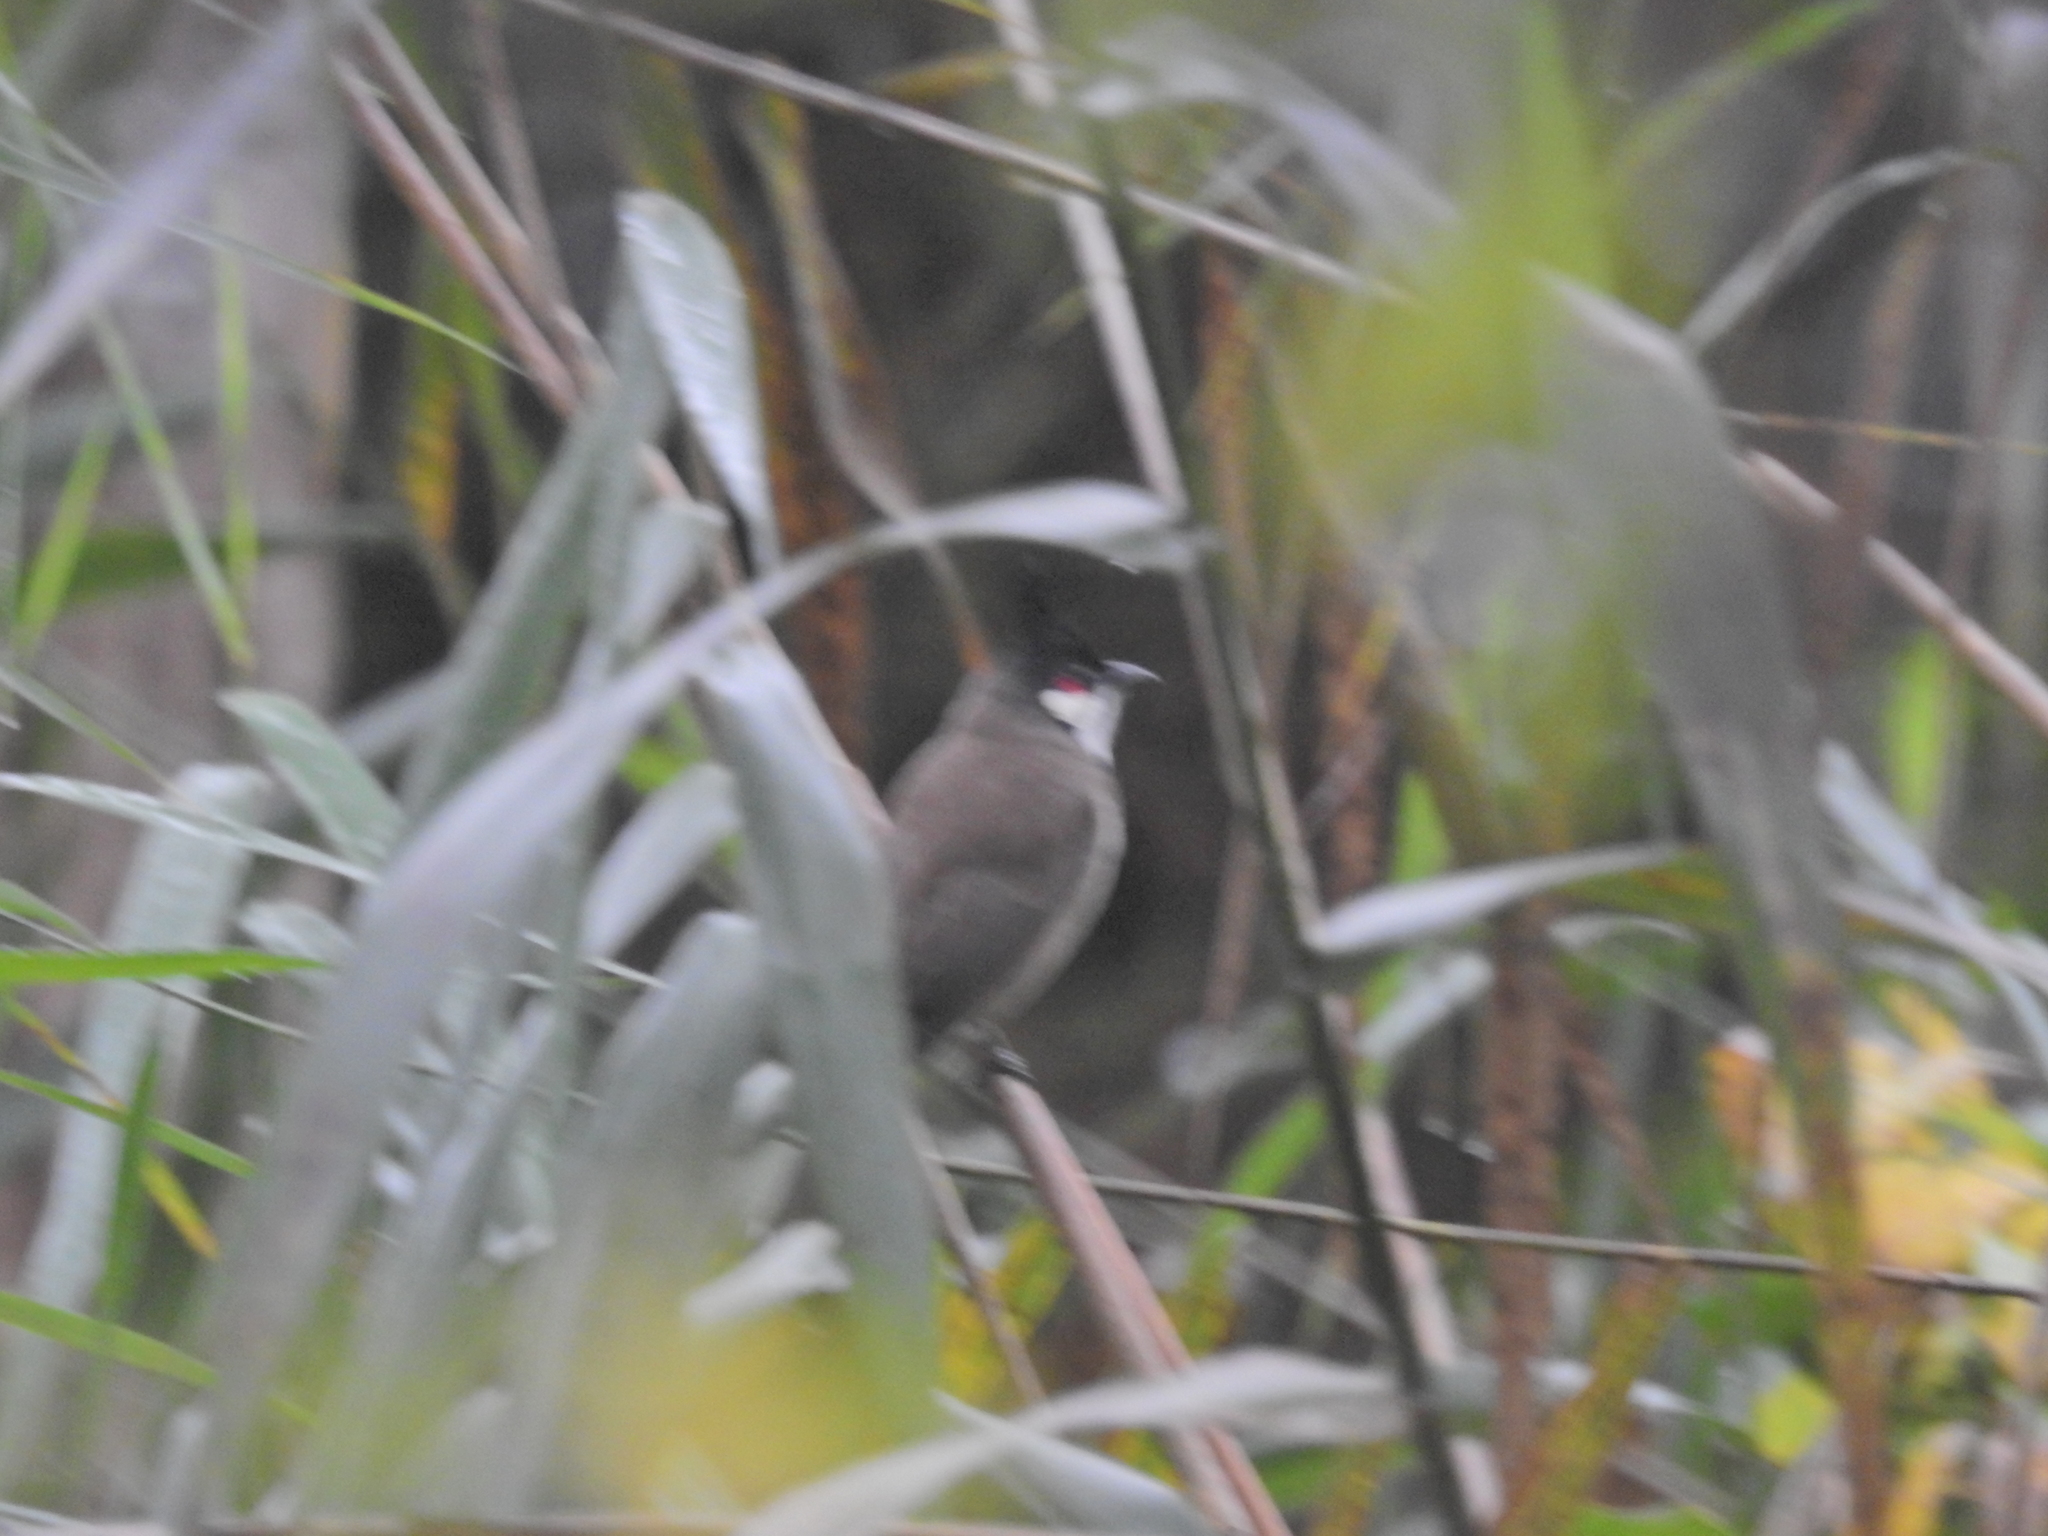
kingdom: Animalia
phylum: Chordata
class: Aves
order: Passeriformes
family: Pycnonotidae
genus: Pycnonotus
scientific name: Pycnonotus jocosus
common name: Red-whiskered bulbul
